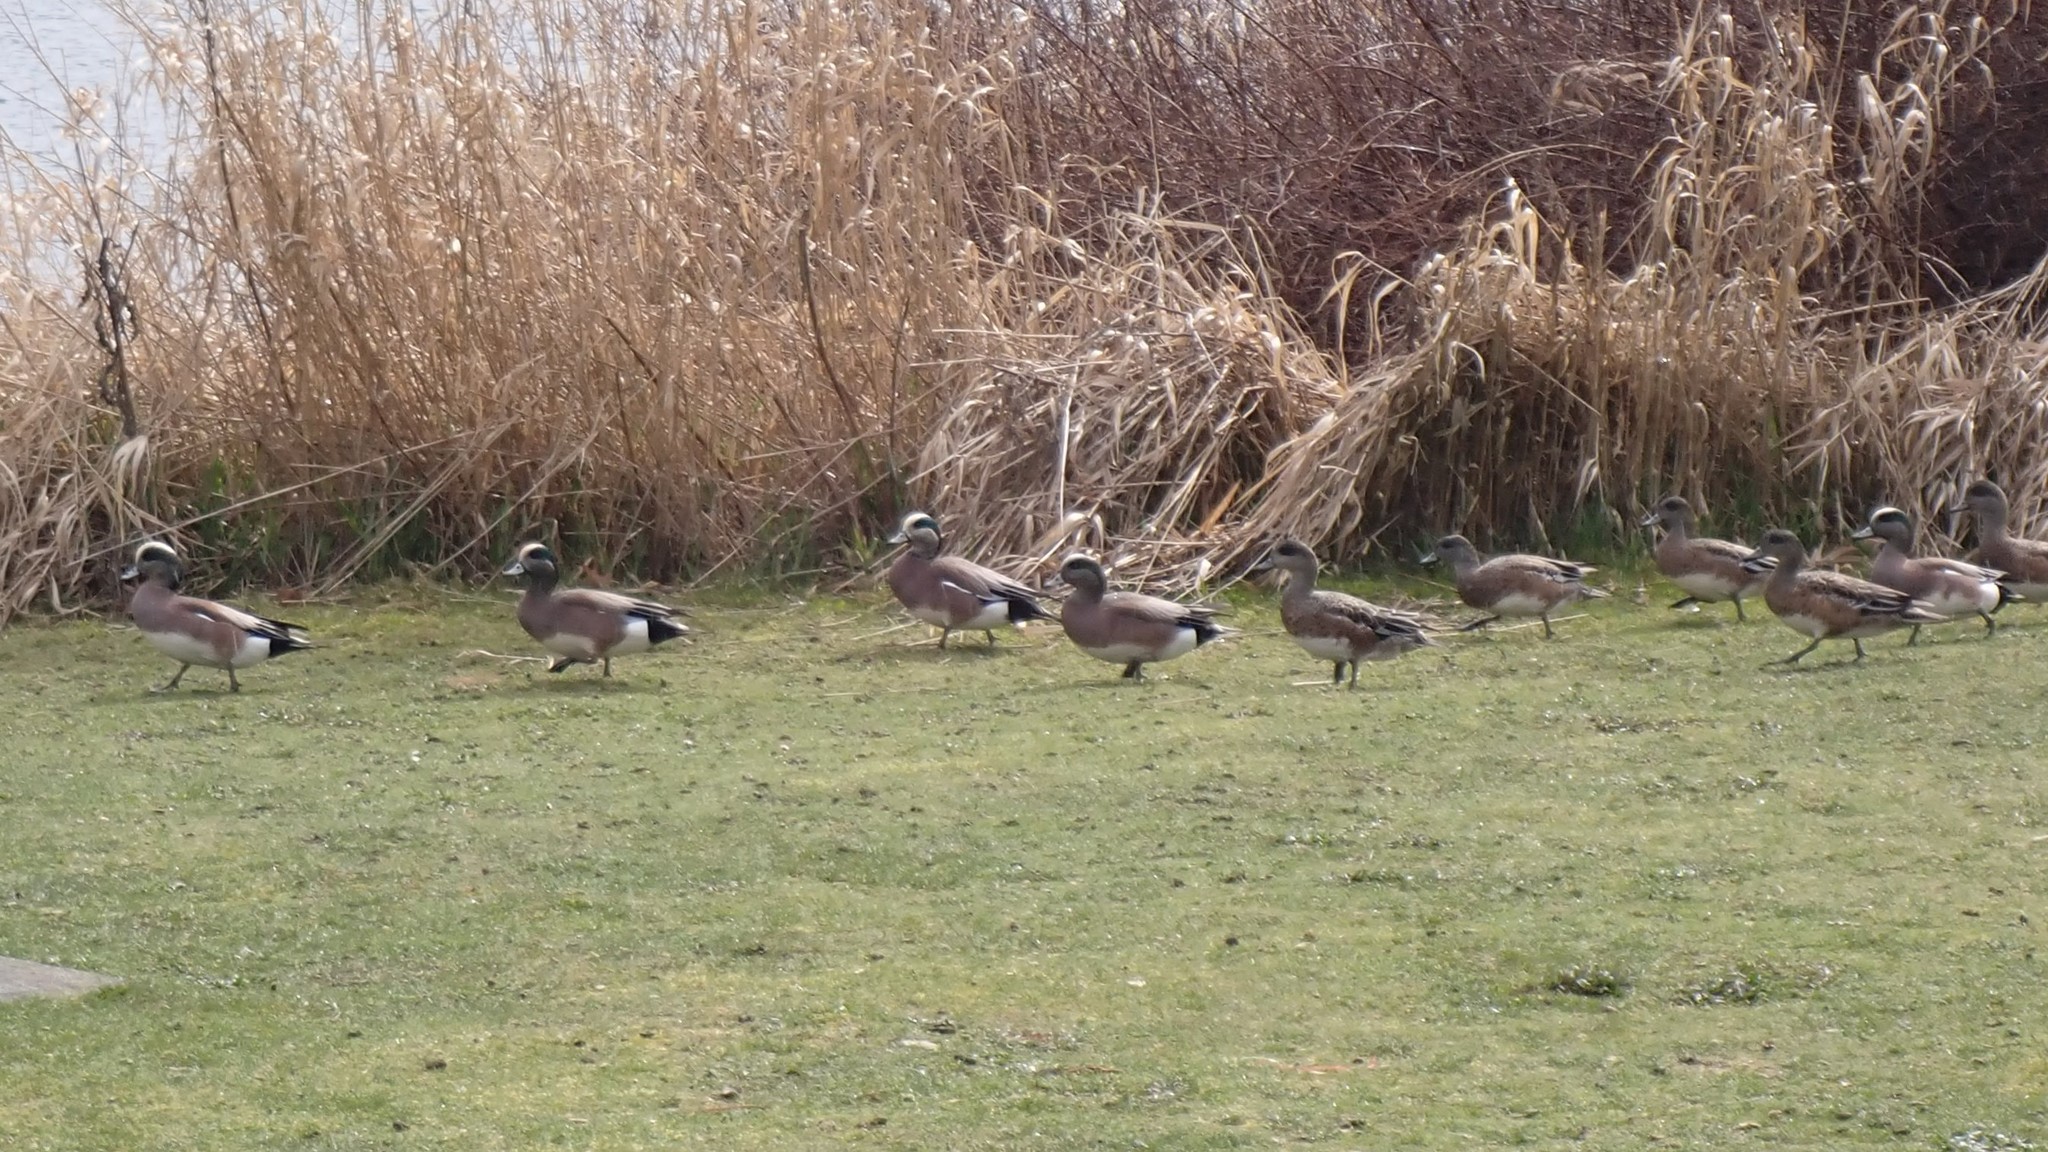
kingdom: Animalia
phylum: Chordata
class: Aves
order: Anseriformes
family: Anatidae
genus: Mareca
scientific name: Mareca americana
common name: American wigeon
